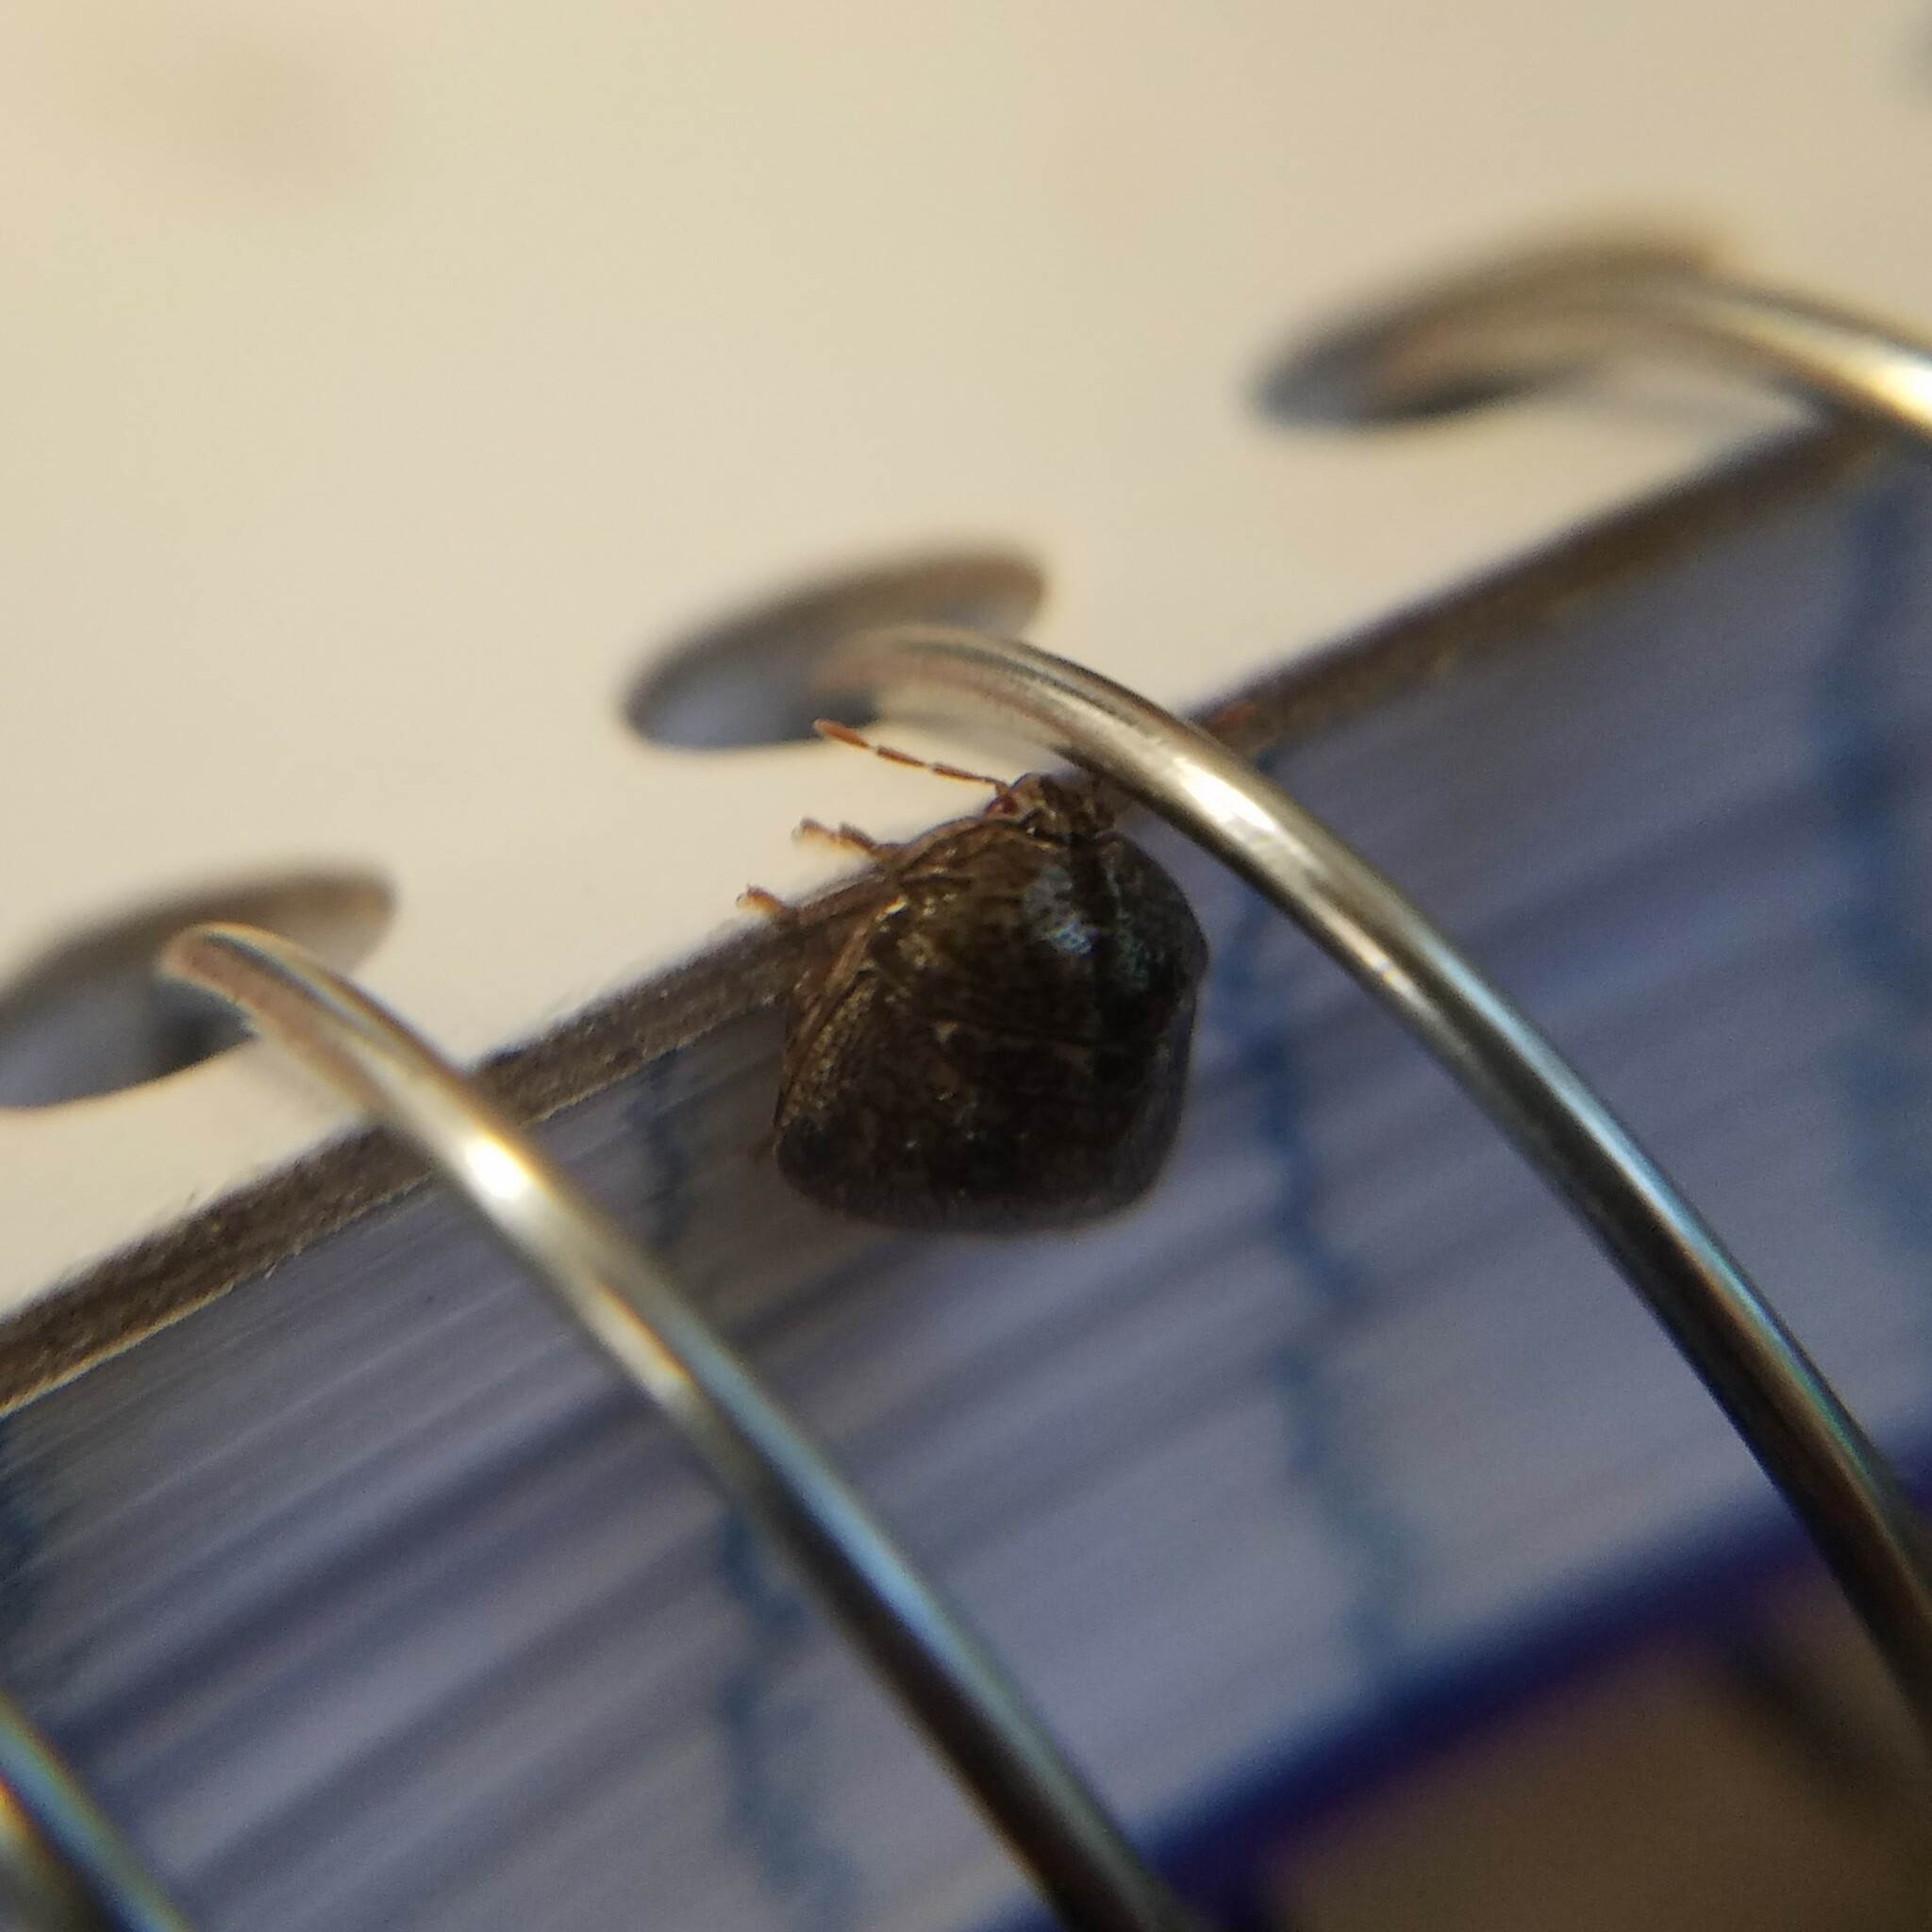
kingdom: Animalia
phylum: Arthropoda
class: Insecta
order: Hemiptera
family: Plataspidae
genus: Megacopta
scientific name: Megacopta cribraria
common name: Bean plataspid
